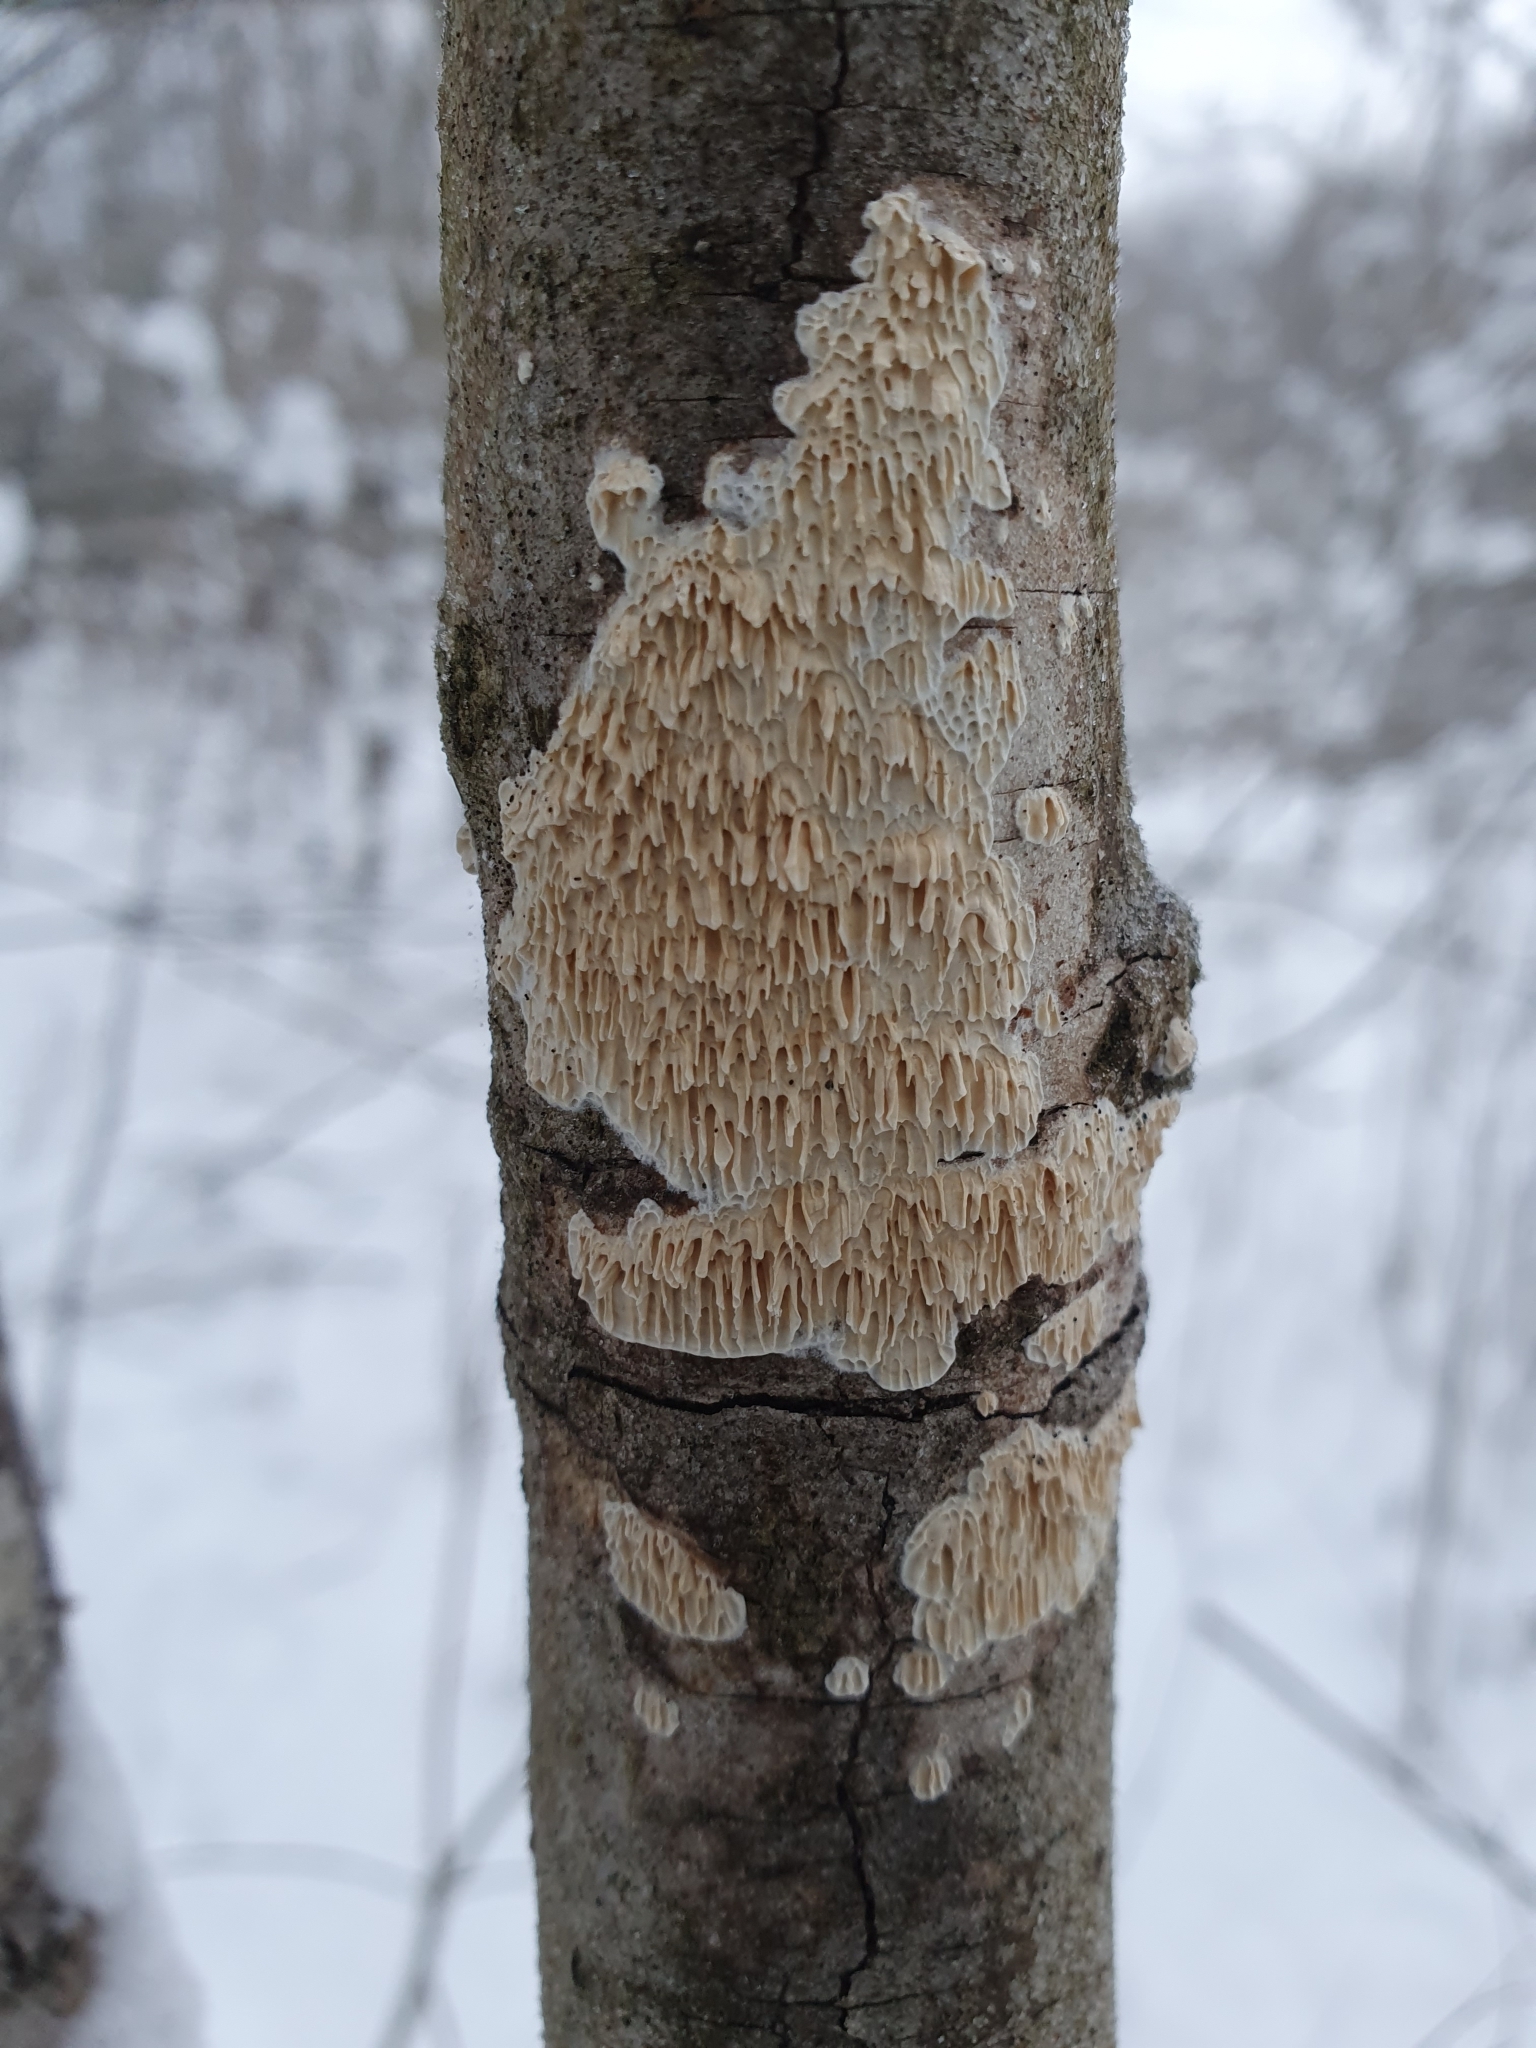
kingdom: Fungi
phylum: Basidiomycota
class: Agaricomycetes
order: Hymenochaetales
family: Schizoporaceae
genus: Xylodon
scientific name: Xylodon radula
